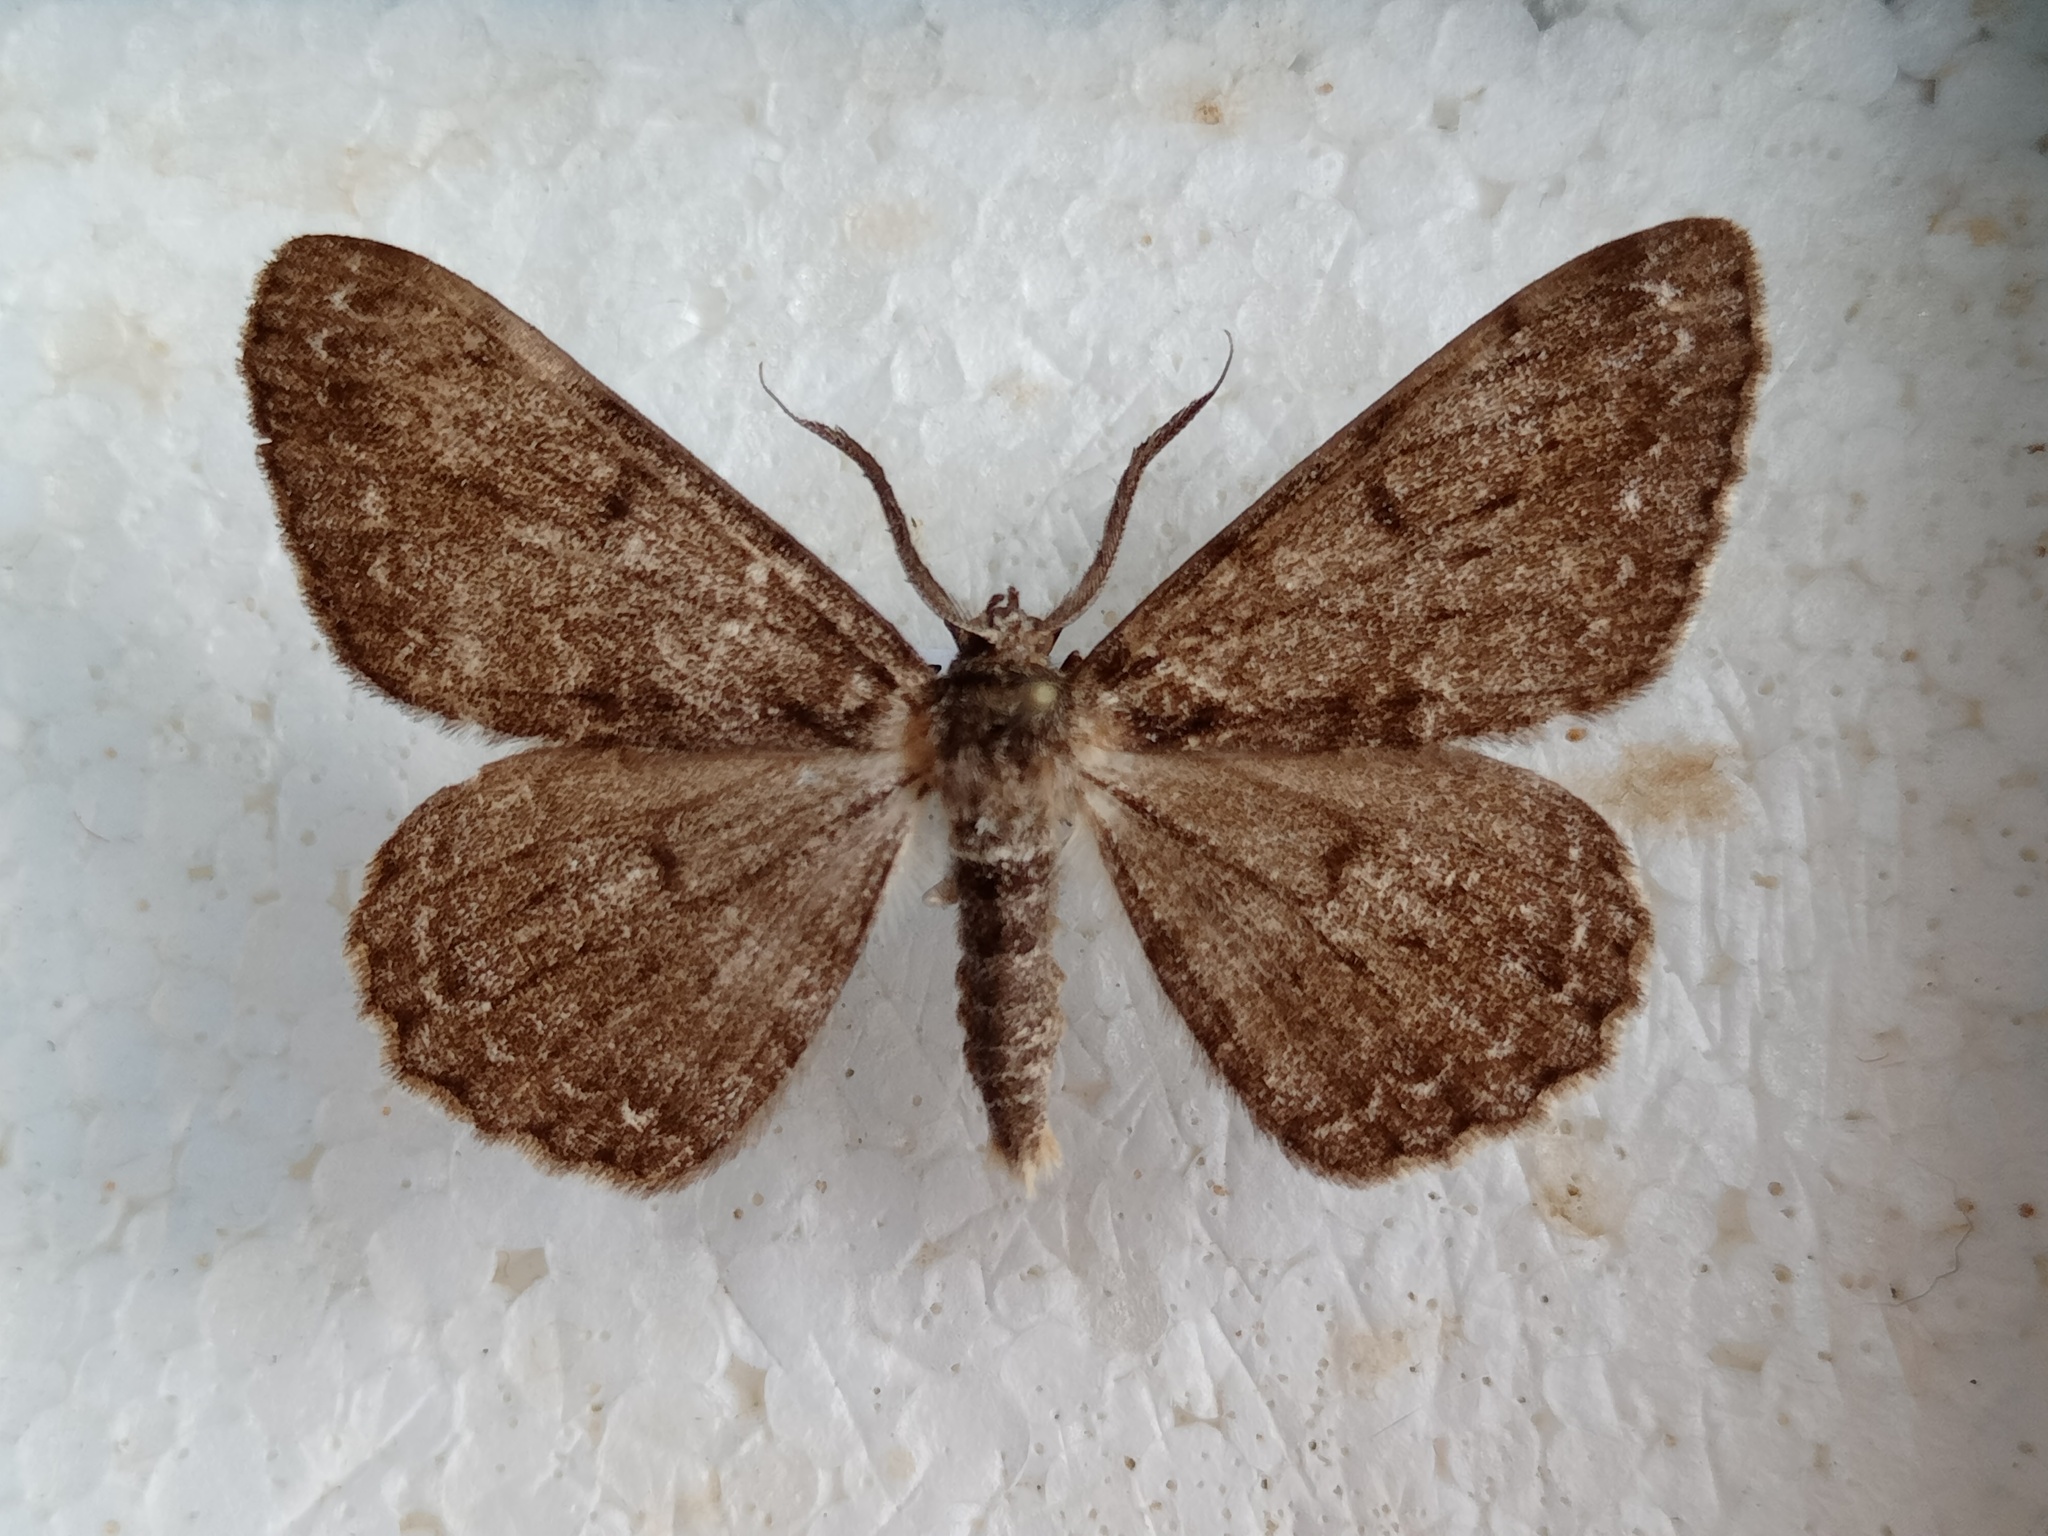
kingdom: Animalia
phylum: Arthropoda
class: Insecta
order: Lepidoptera
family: Geometridae
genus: Hypomecis
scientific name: Hypomecis roboraria
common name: Great oak beauty
